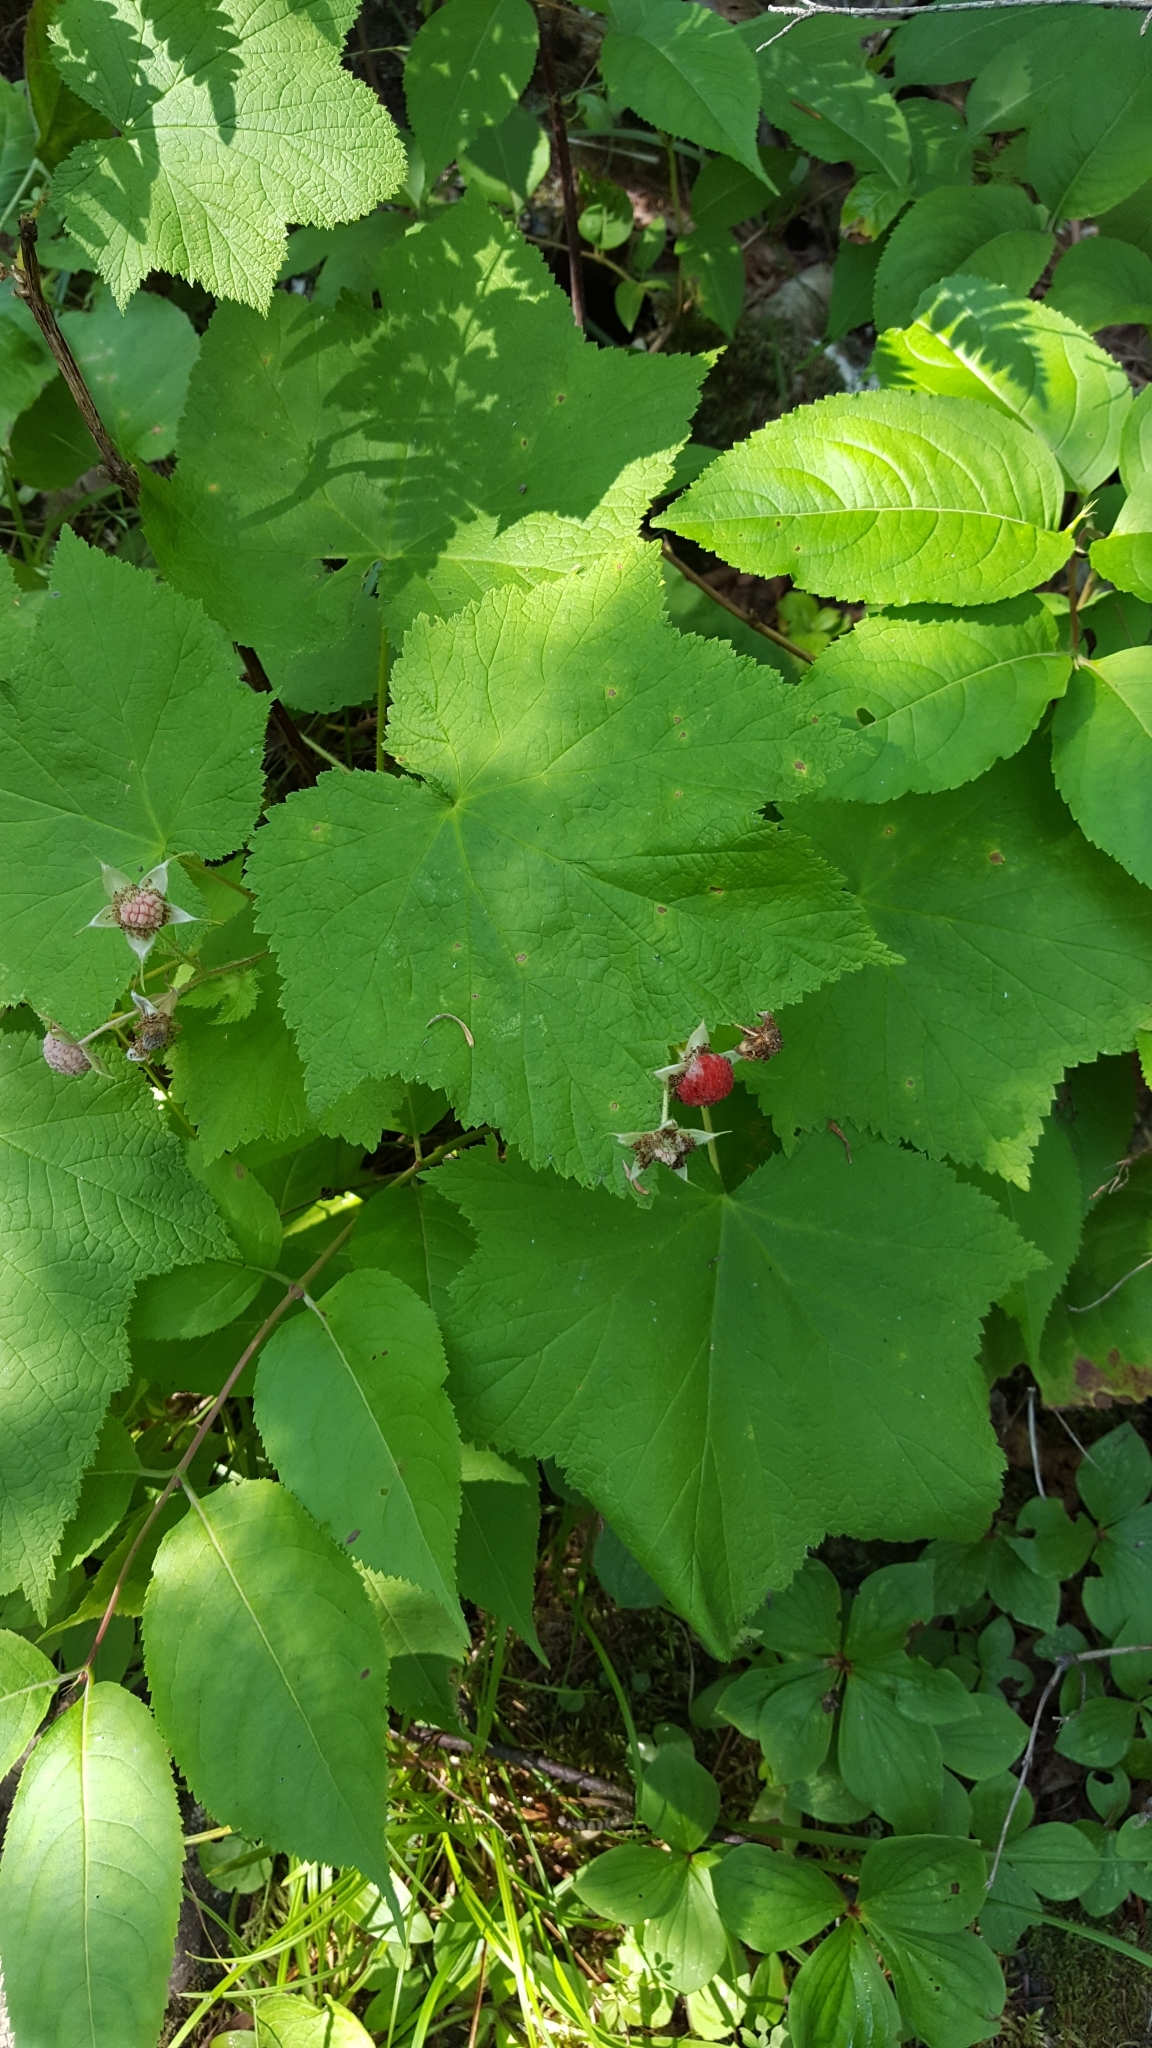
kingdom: Plantae
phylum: Tracheophyta
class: Magnoliopsida
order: Rosales
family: Rosaceae
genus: Rubus
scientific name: Rubus parviflorus
